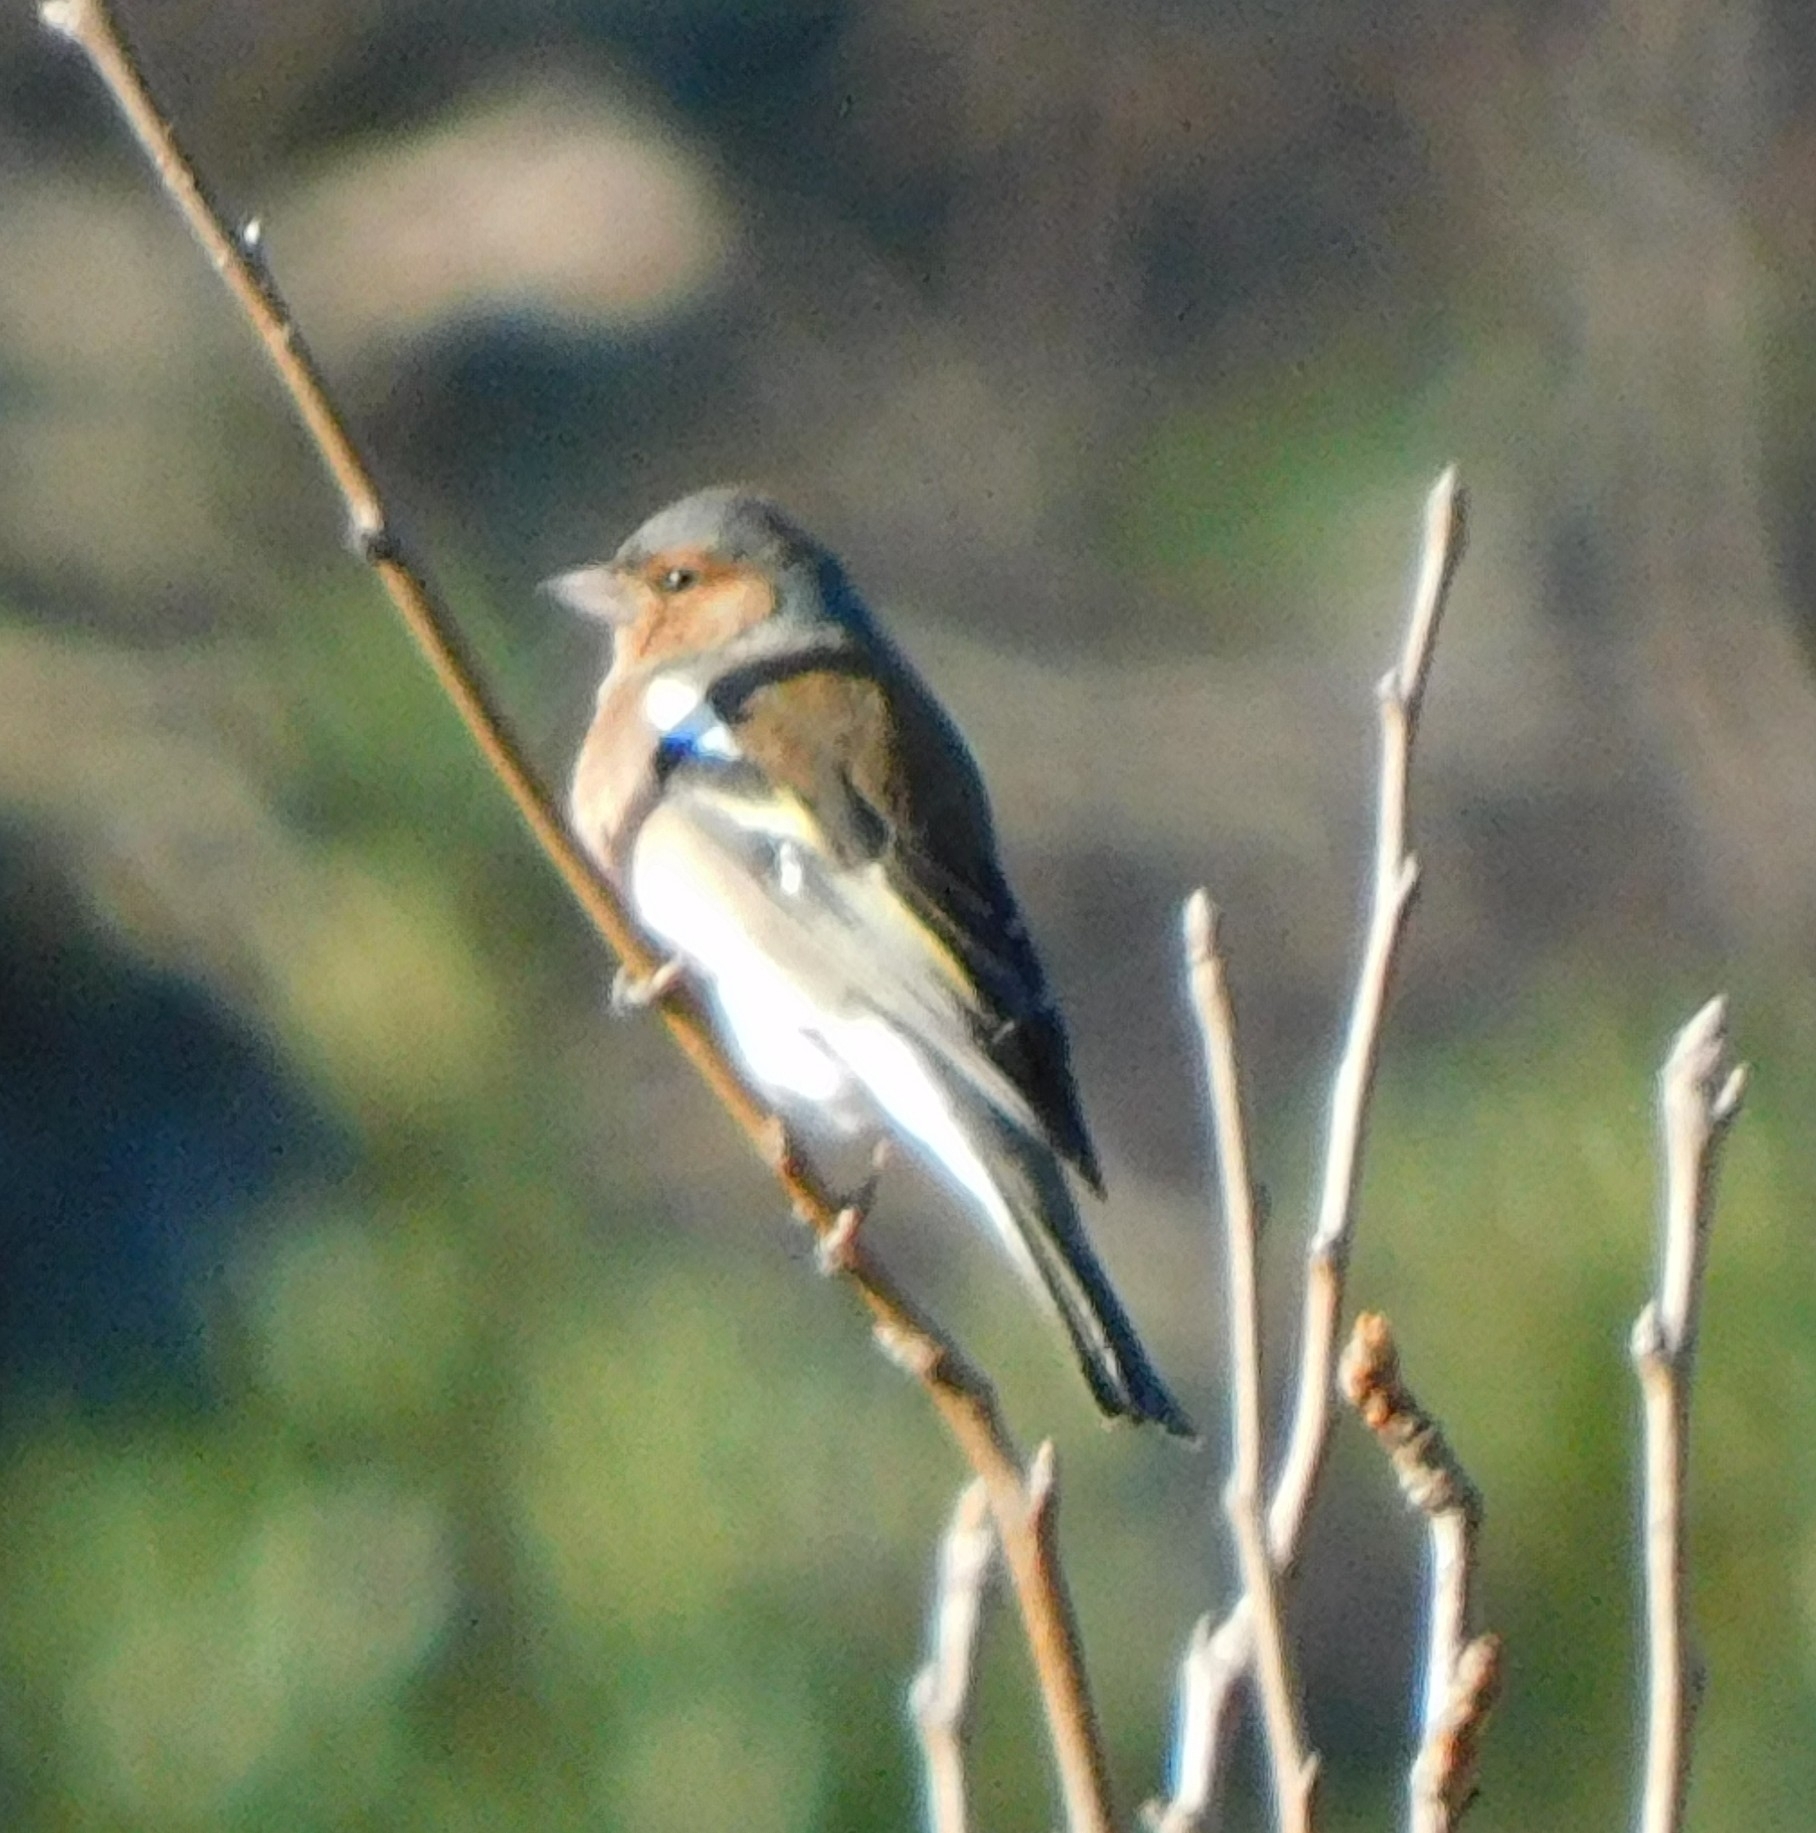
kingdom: Animalia
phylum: Chordata
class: Aves
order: Passeriformes
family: Fringillidae
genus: Fringilla
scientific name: Fringilla coelebs
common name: Common chaffinch
